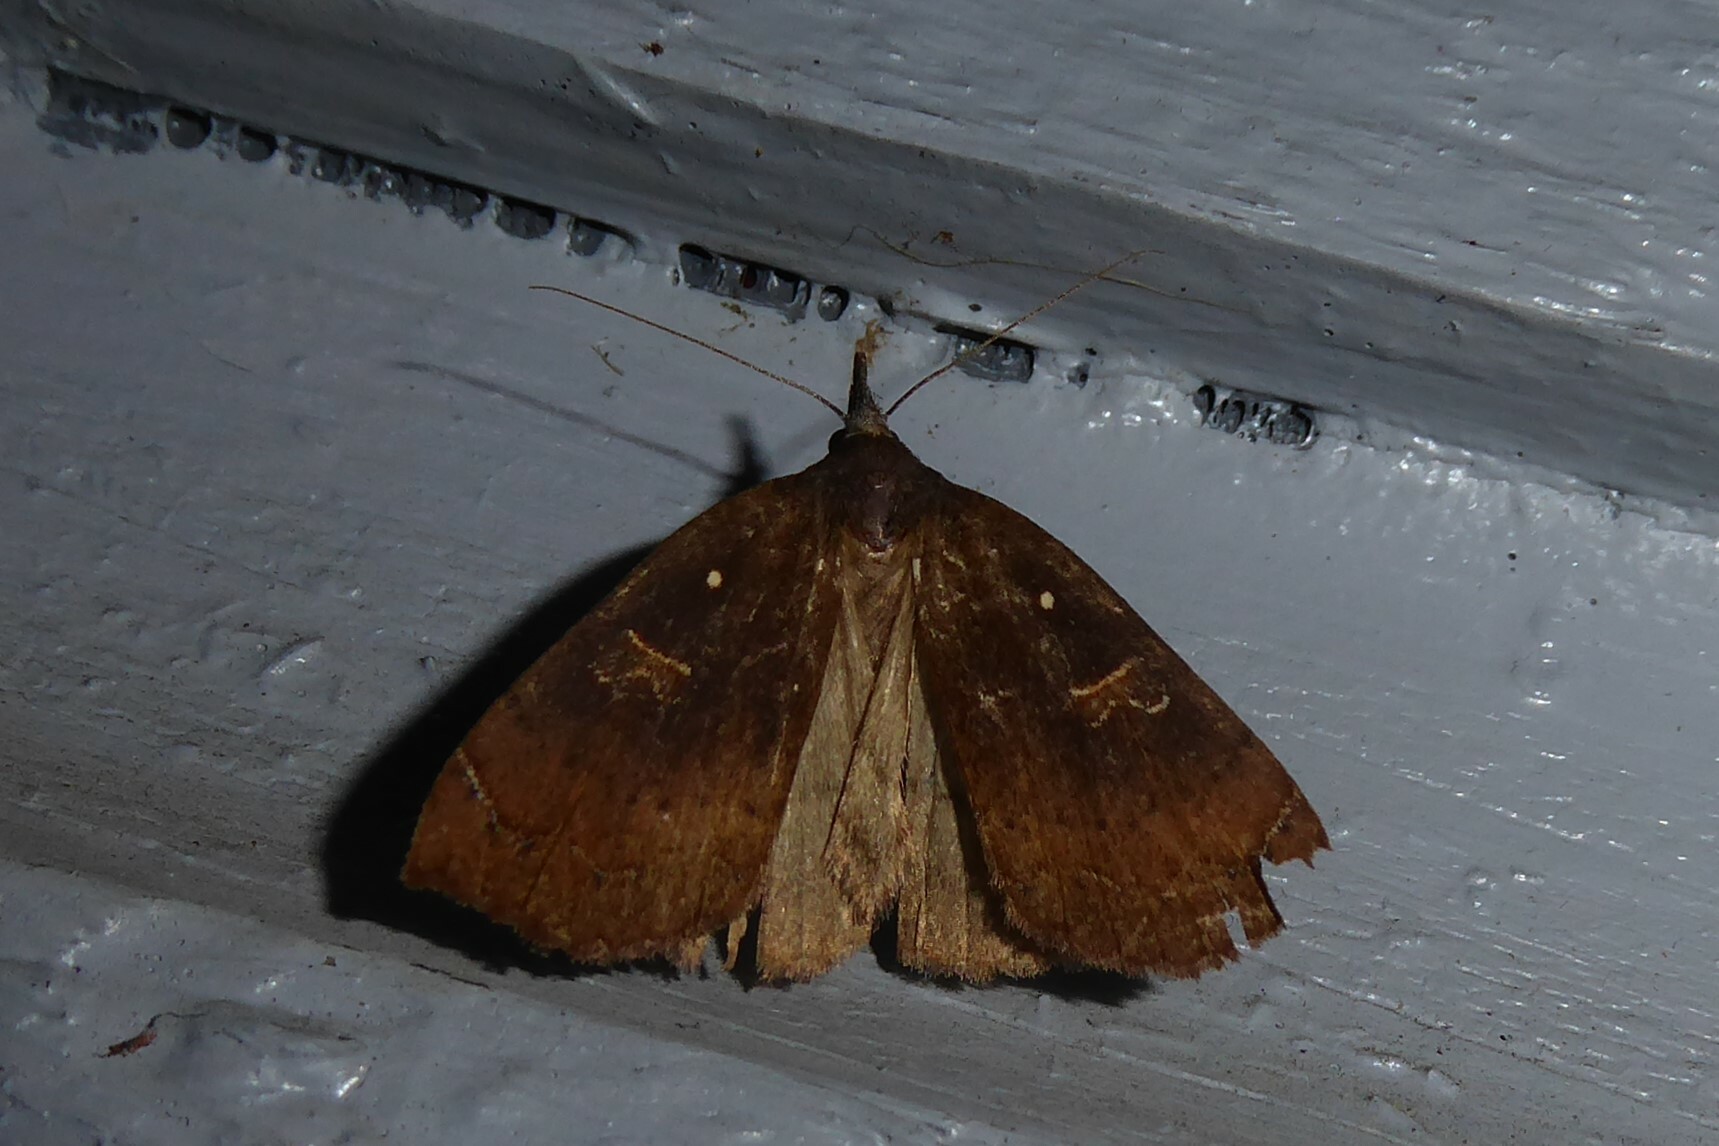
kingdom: Animalia
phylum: Arthropoda
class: Insecta
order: Lepidoptera
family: Erebidae
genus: Rhapsa
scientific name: Rhapsa scotosialis
